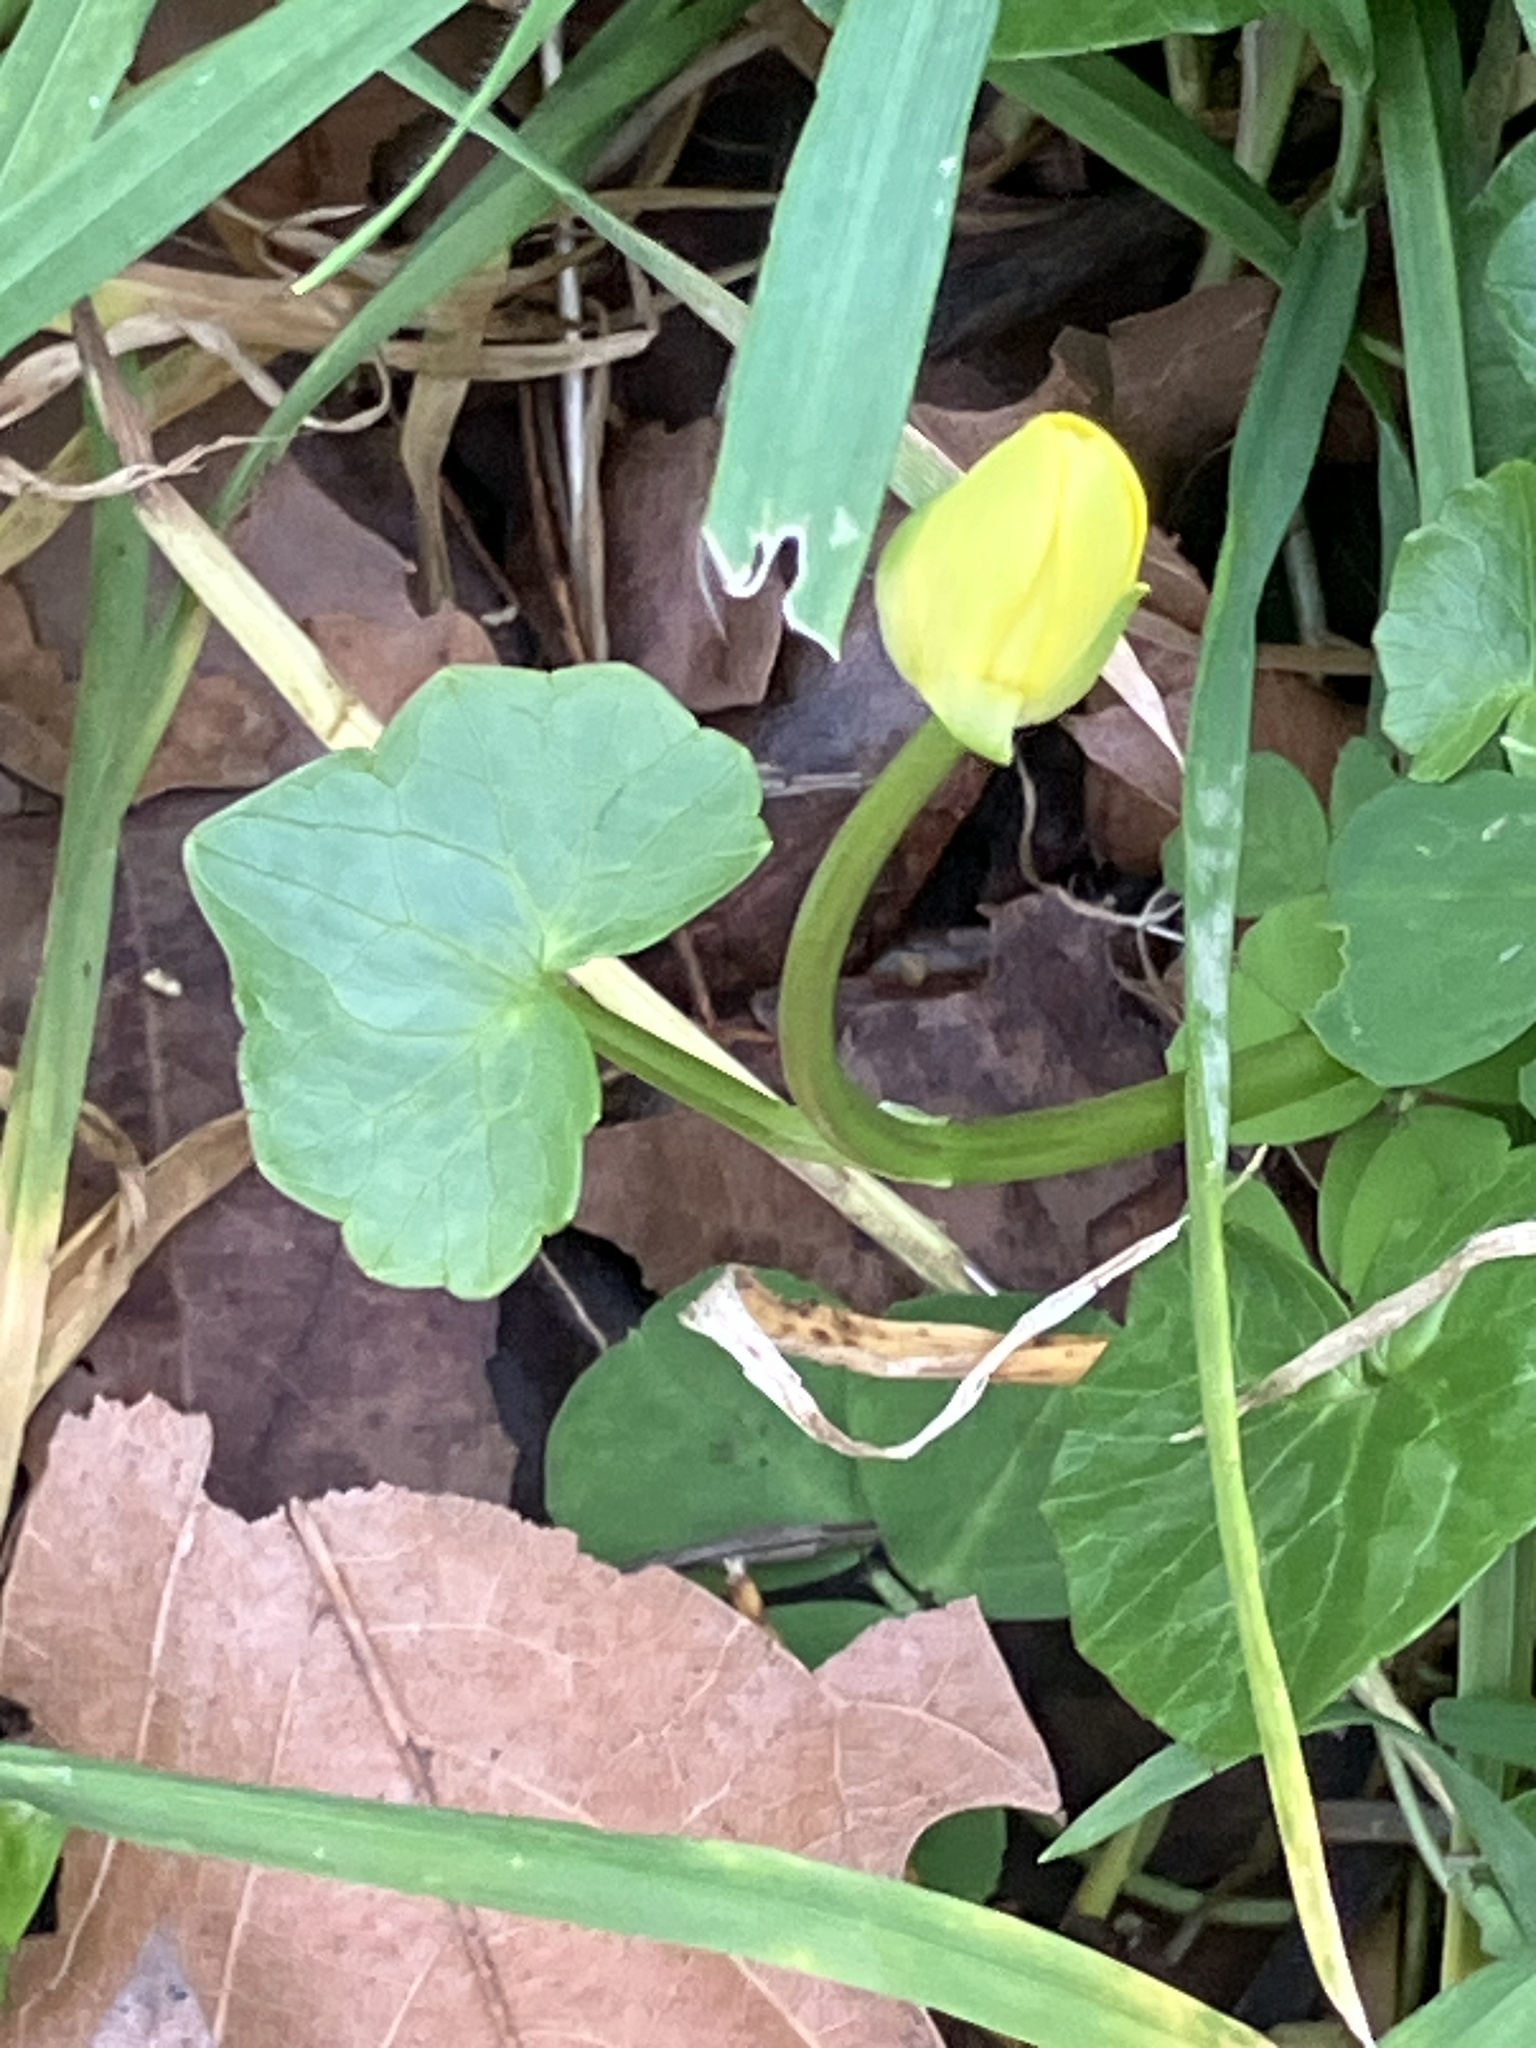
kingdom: Plantae
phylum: Tracheophyta
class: Magnoliopsida
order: Ranunculales
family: Ranunculaceae
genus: Ficaria
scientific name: Ficaria verna
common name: Lesser celandine
